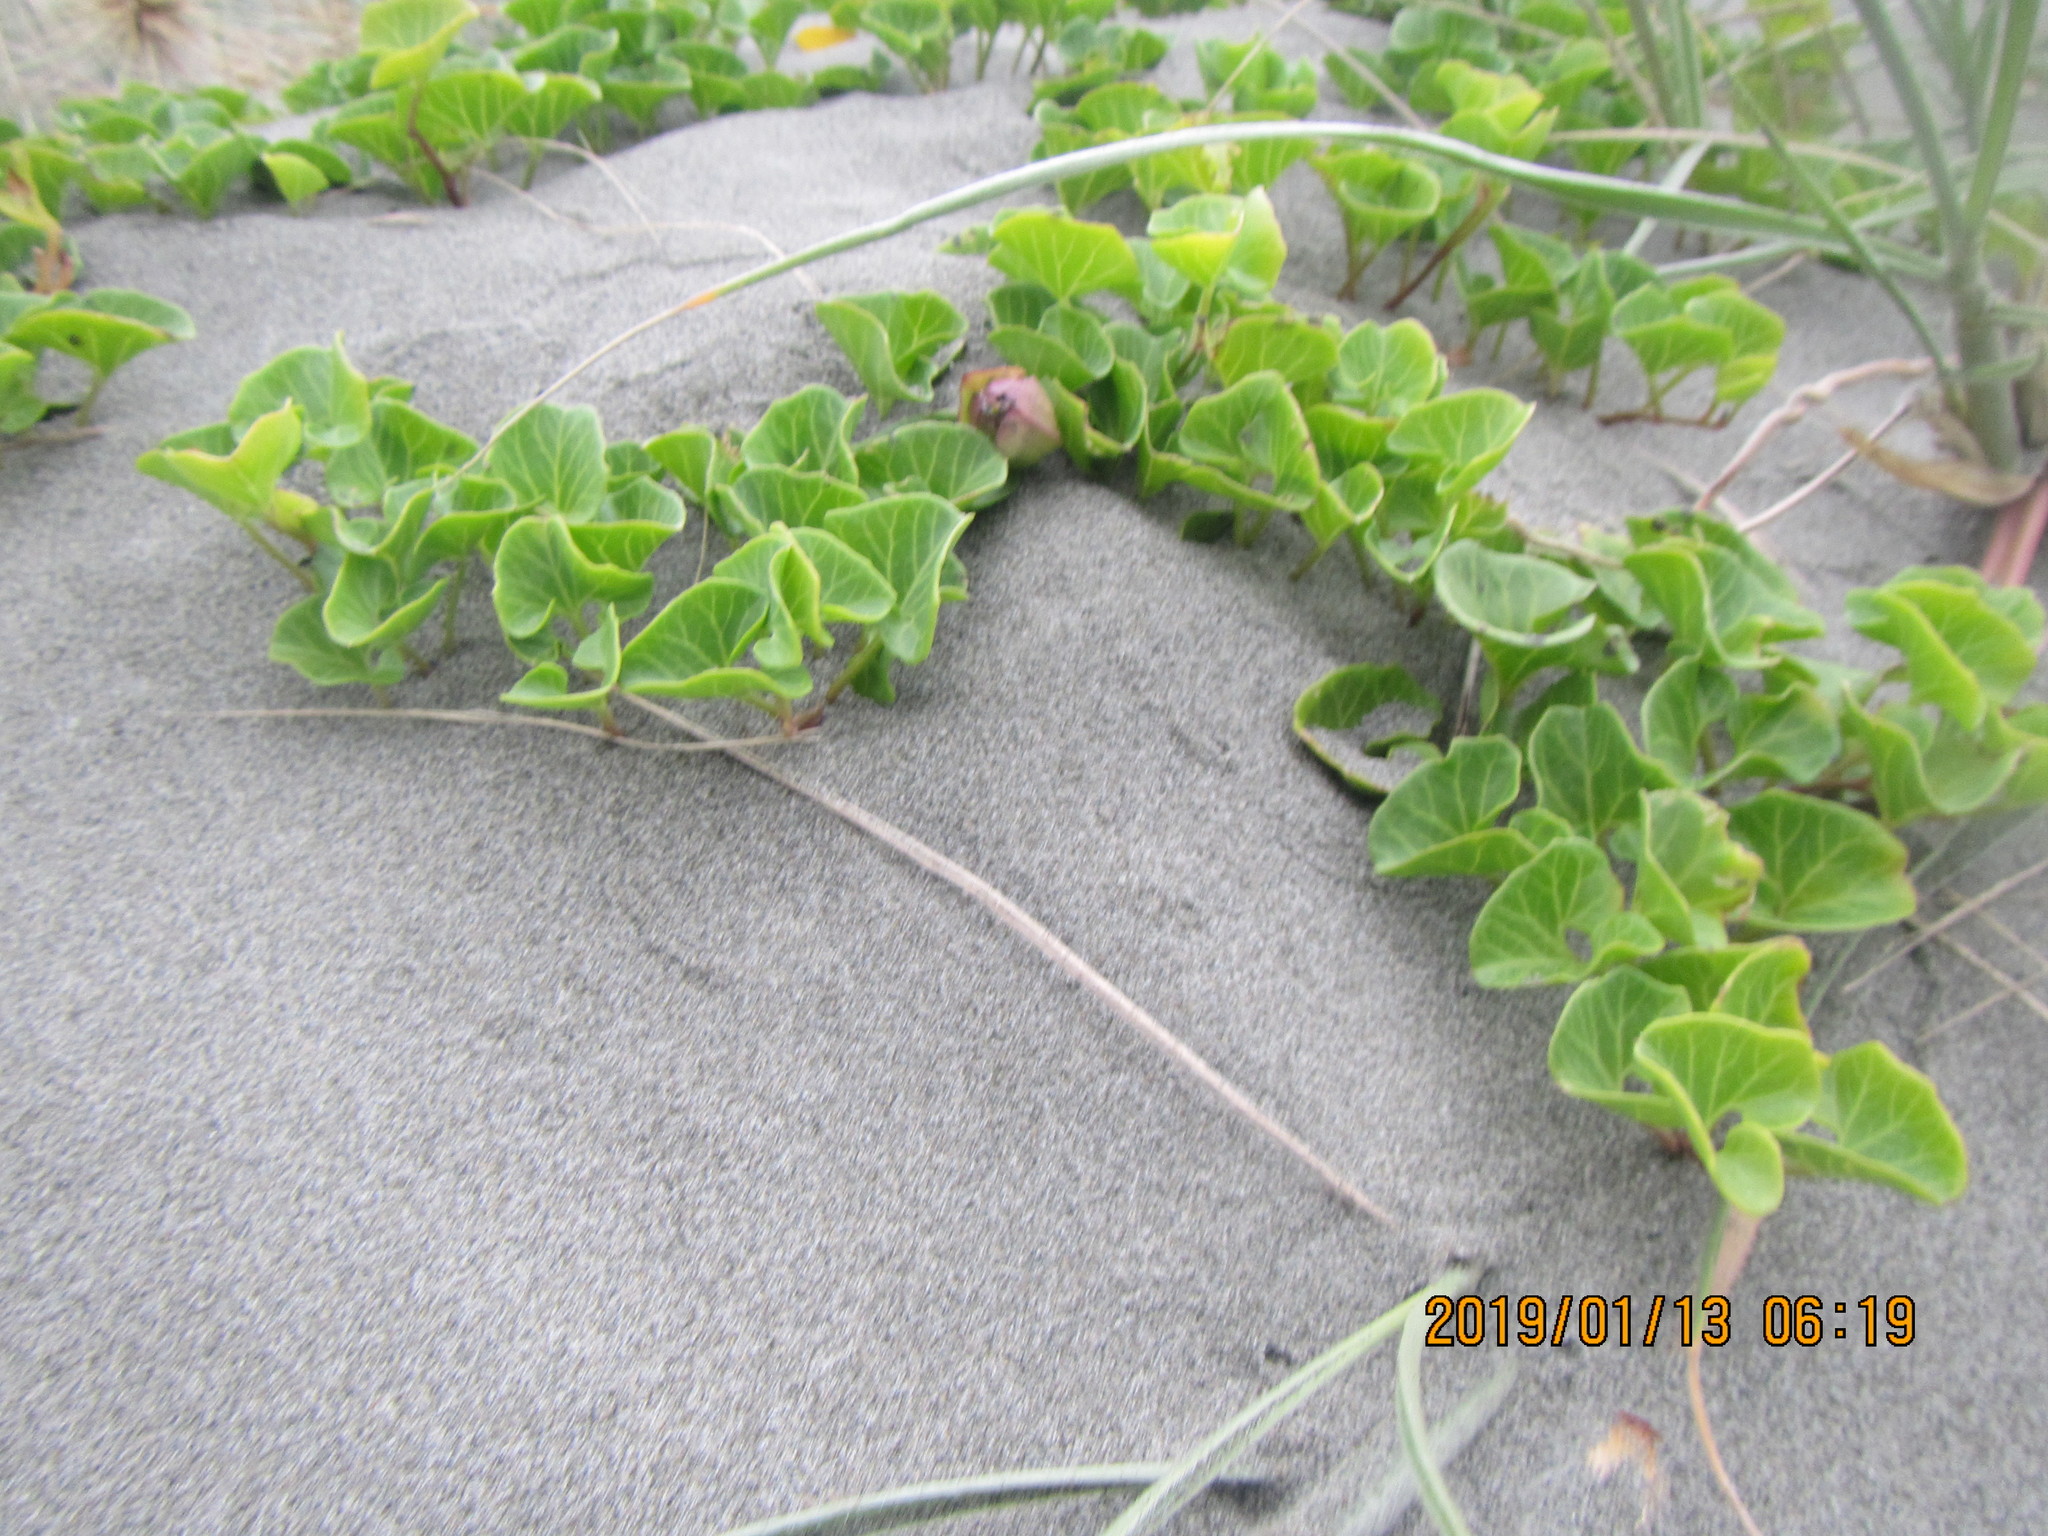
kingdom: Plantae
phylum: Tracheophyta
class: Magnoliopsida
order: Solanales
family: Convolvulaceae
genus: Calystegia
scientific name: Calystegia soldanella
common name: Sea bindweed
